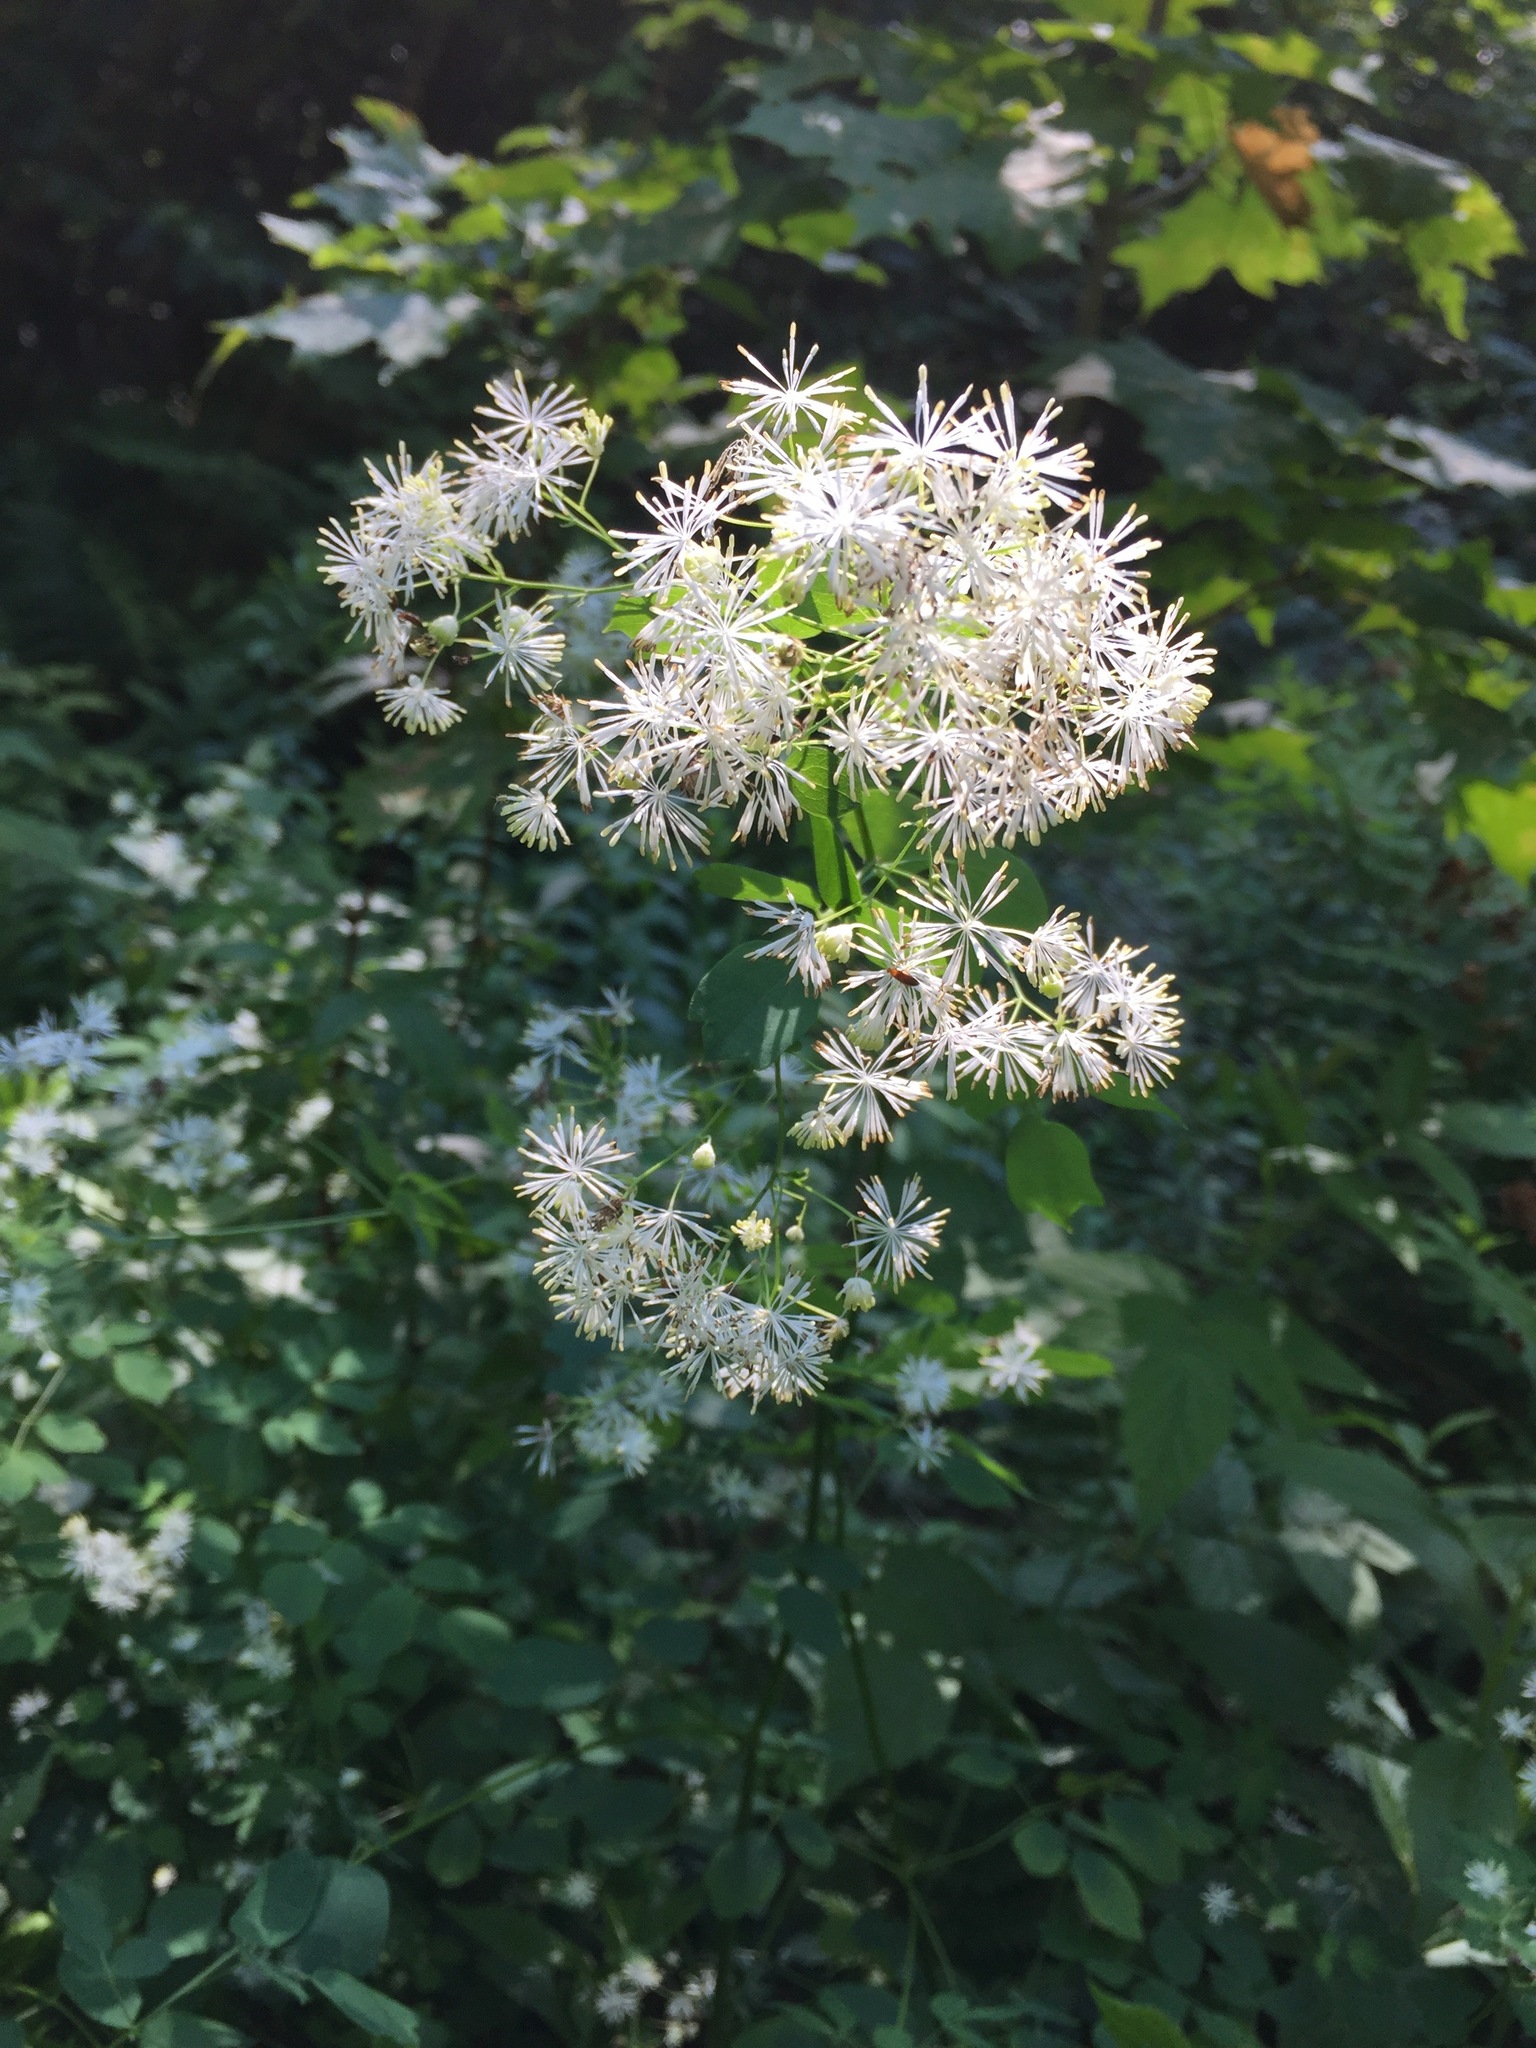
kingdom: Plantae
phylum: Tracheophyta
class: Magnoliopsida
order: Ranunculales
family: Ranunculaceae
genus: Thalictrum
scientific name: Thalictrum pubescens
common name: King-of-the-meadow
